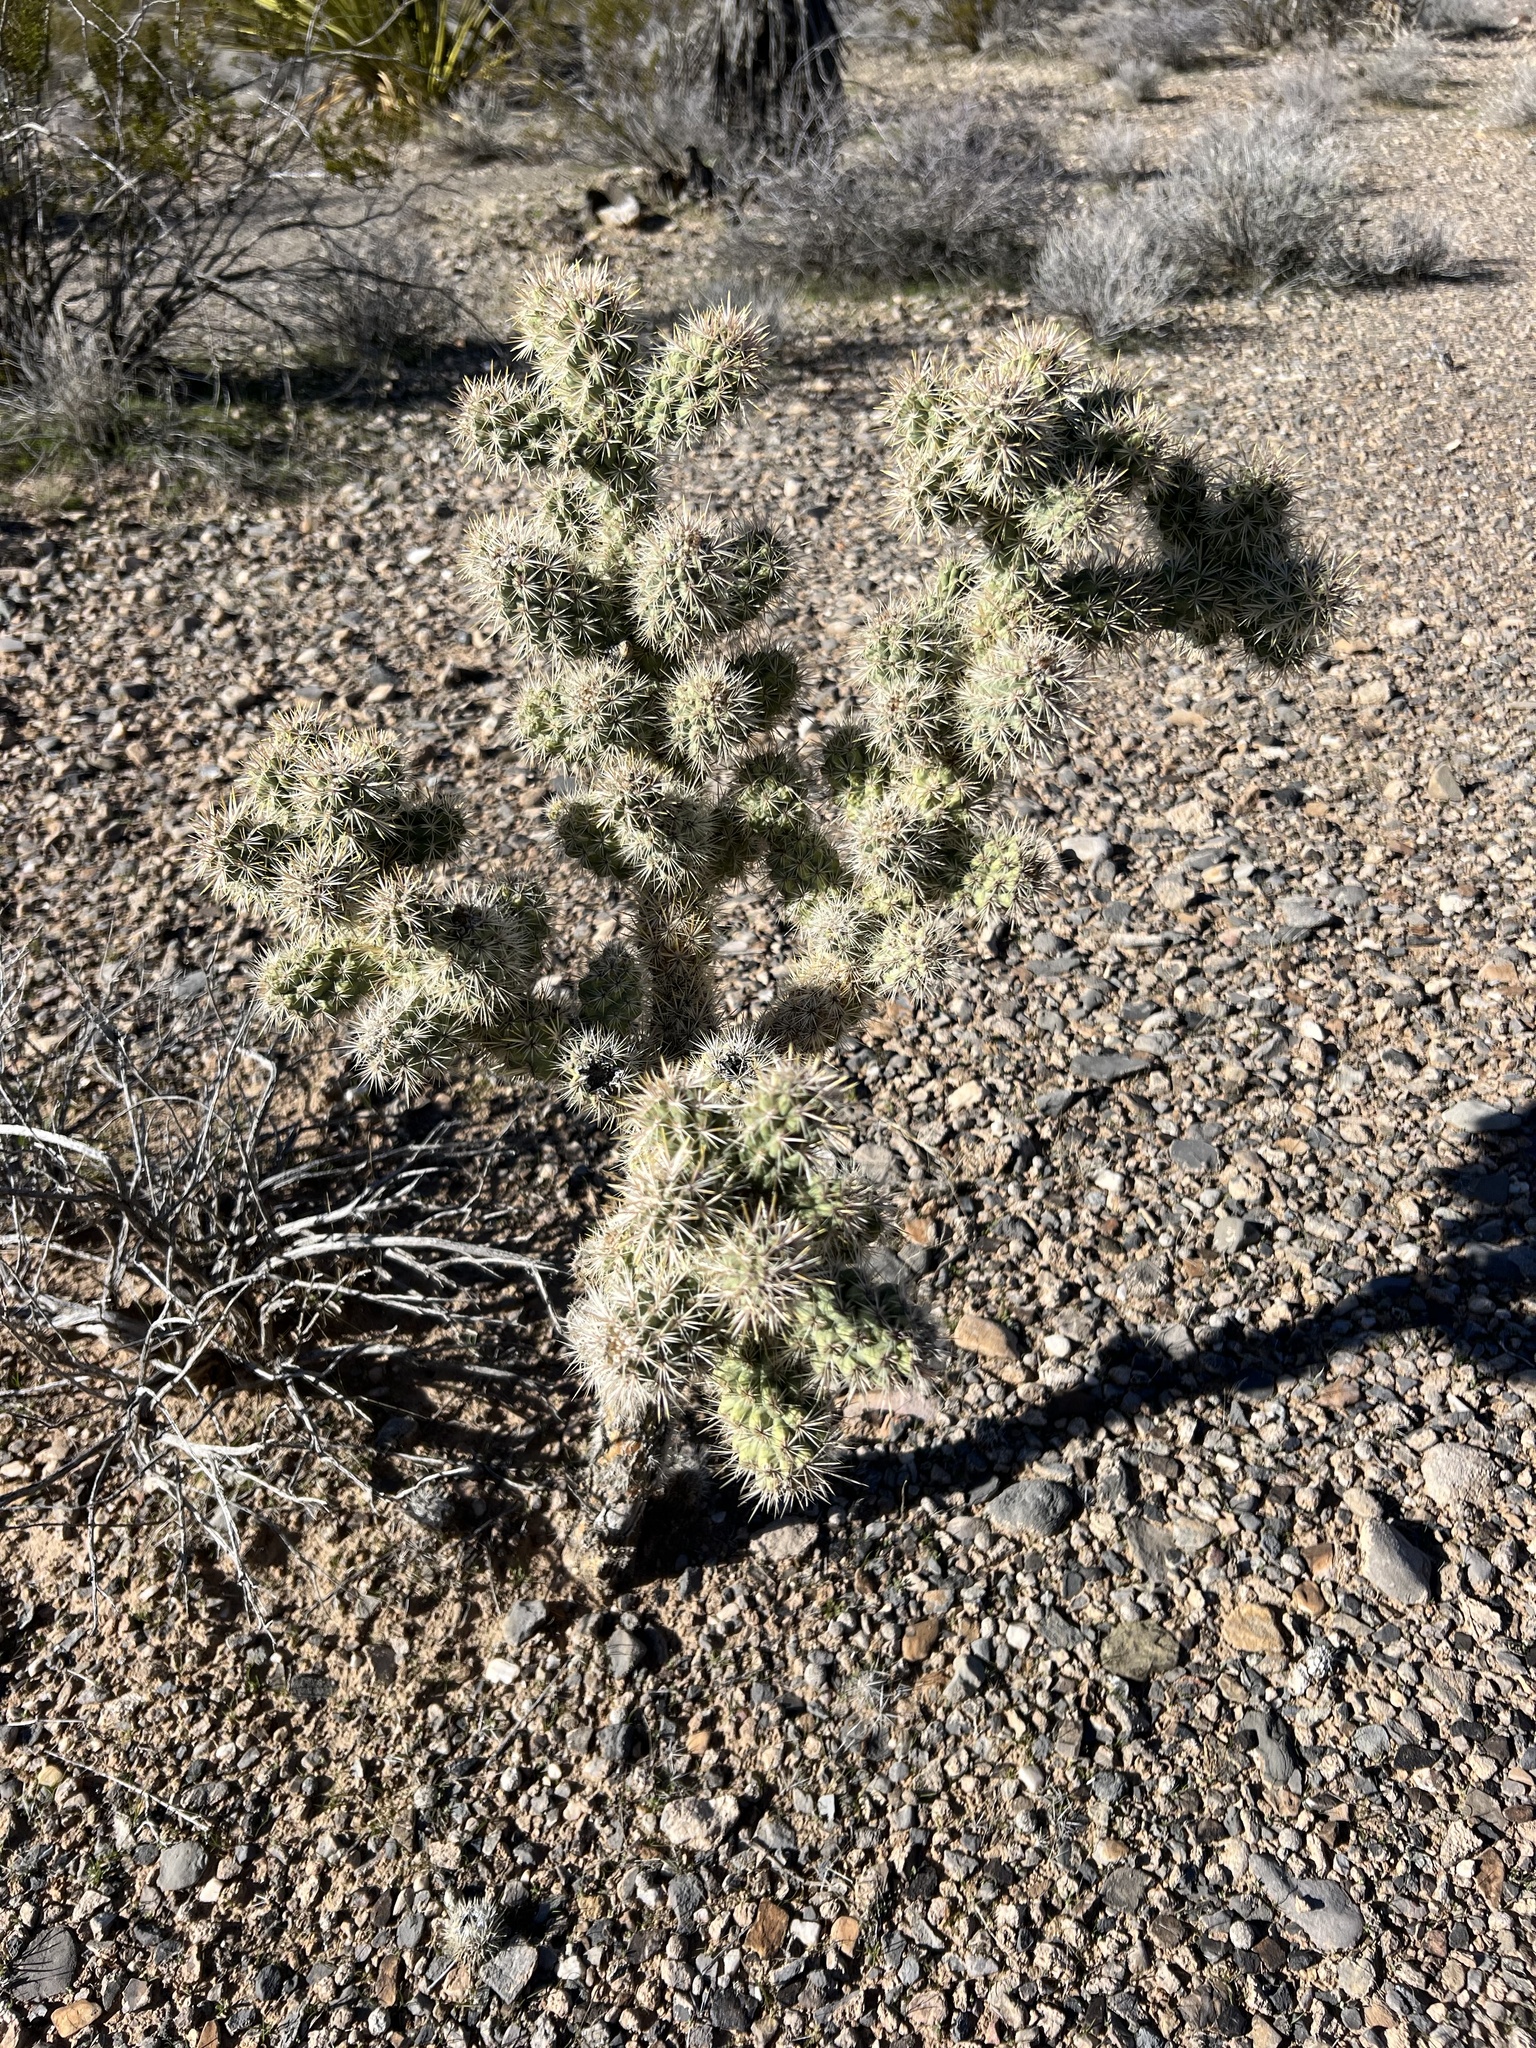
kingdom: Plantae
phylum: Tracheophyta
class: Magnoliopsida
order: Caryophyllales
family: Cactaceae
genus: Cylindropuntia
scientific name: Cylindropuntia echinocarpa
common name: Ground cholla
